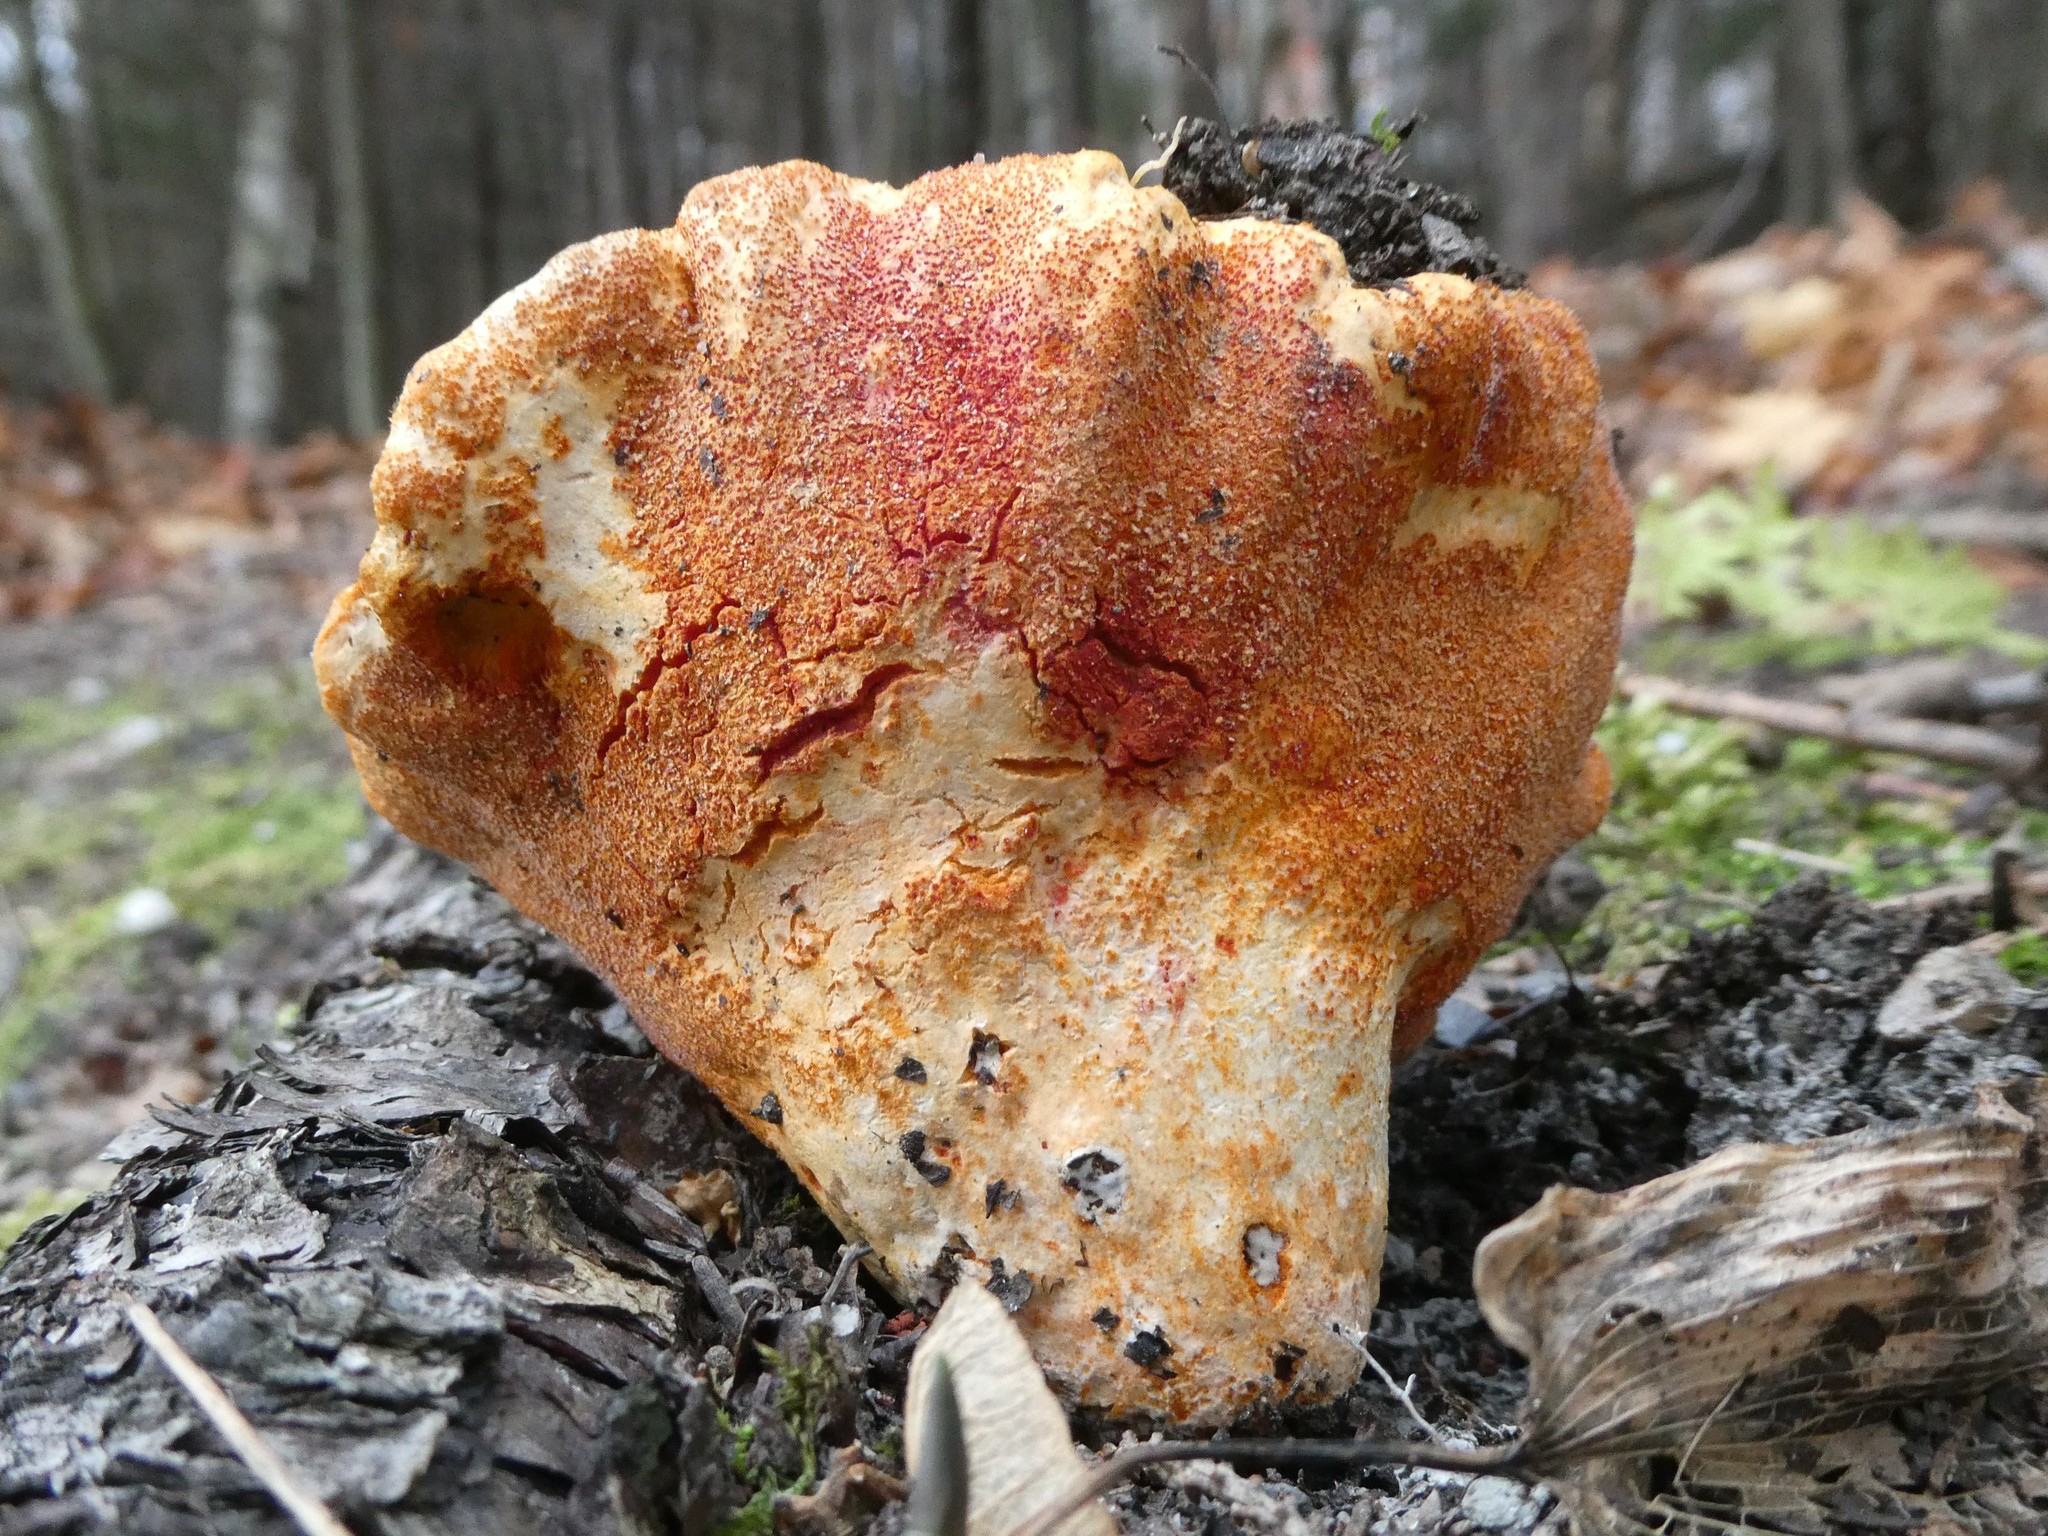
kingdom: Fungi
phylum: Ascomycota
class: Sordariomycetes
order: Hypocreales
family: Hypocreaceae
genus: Hypomyces
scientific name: Hypomyces lactifluorum
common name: Lobster mushroom
